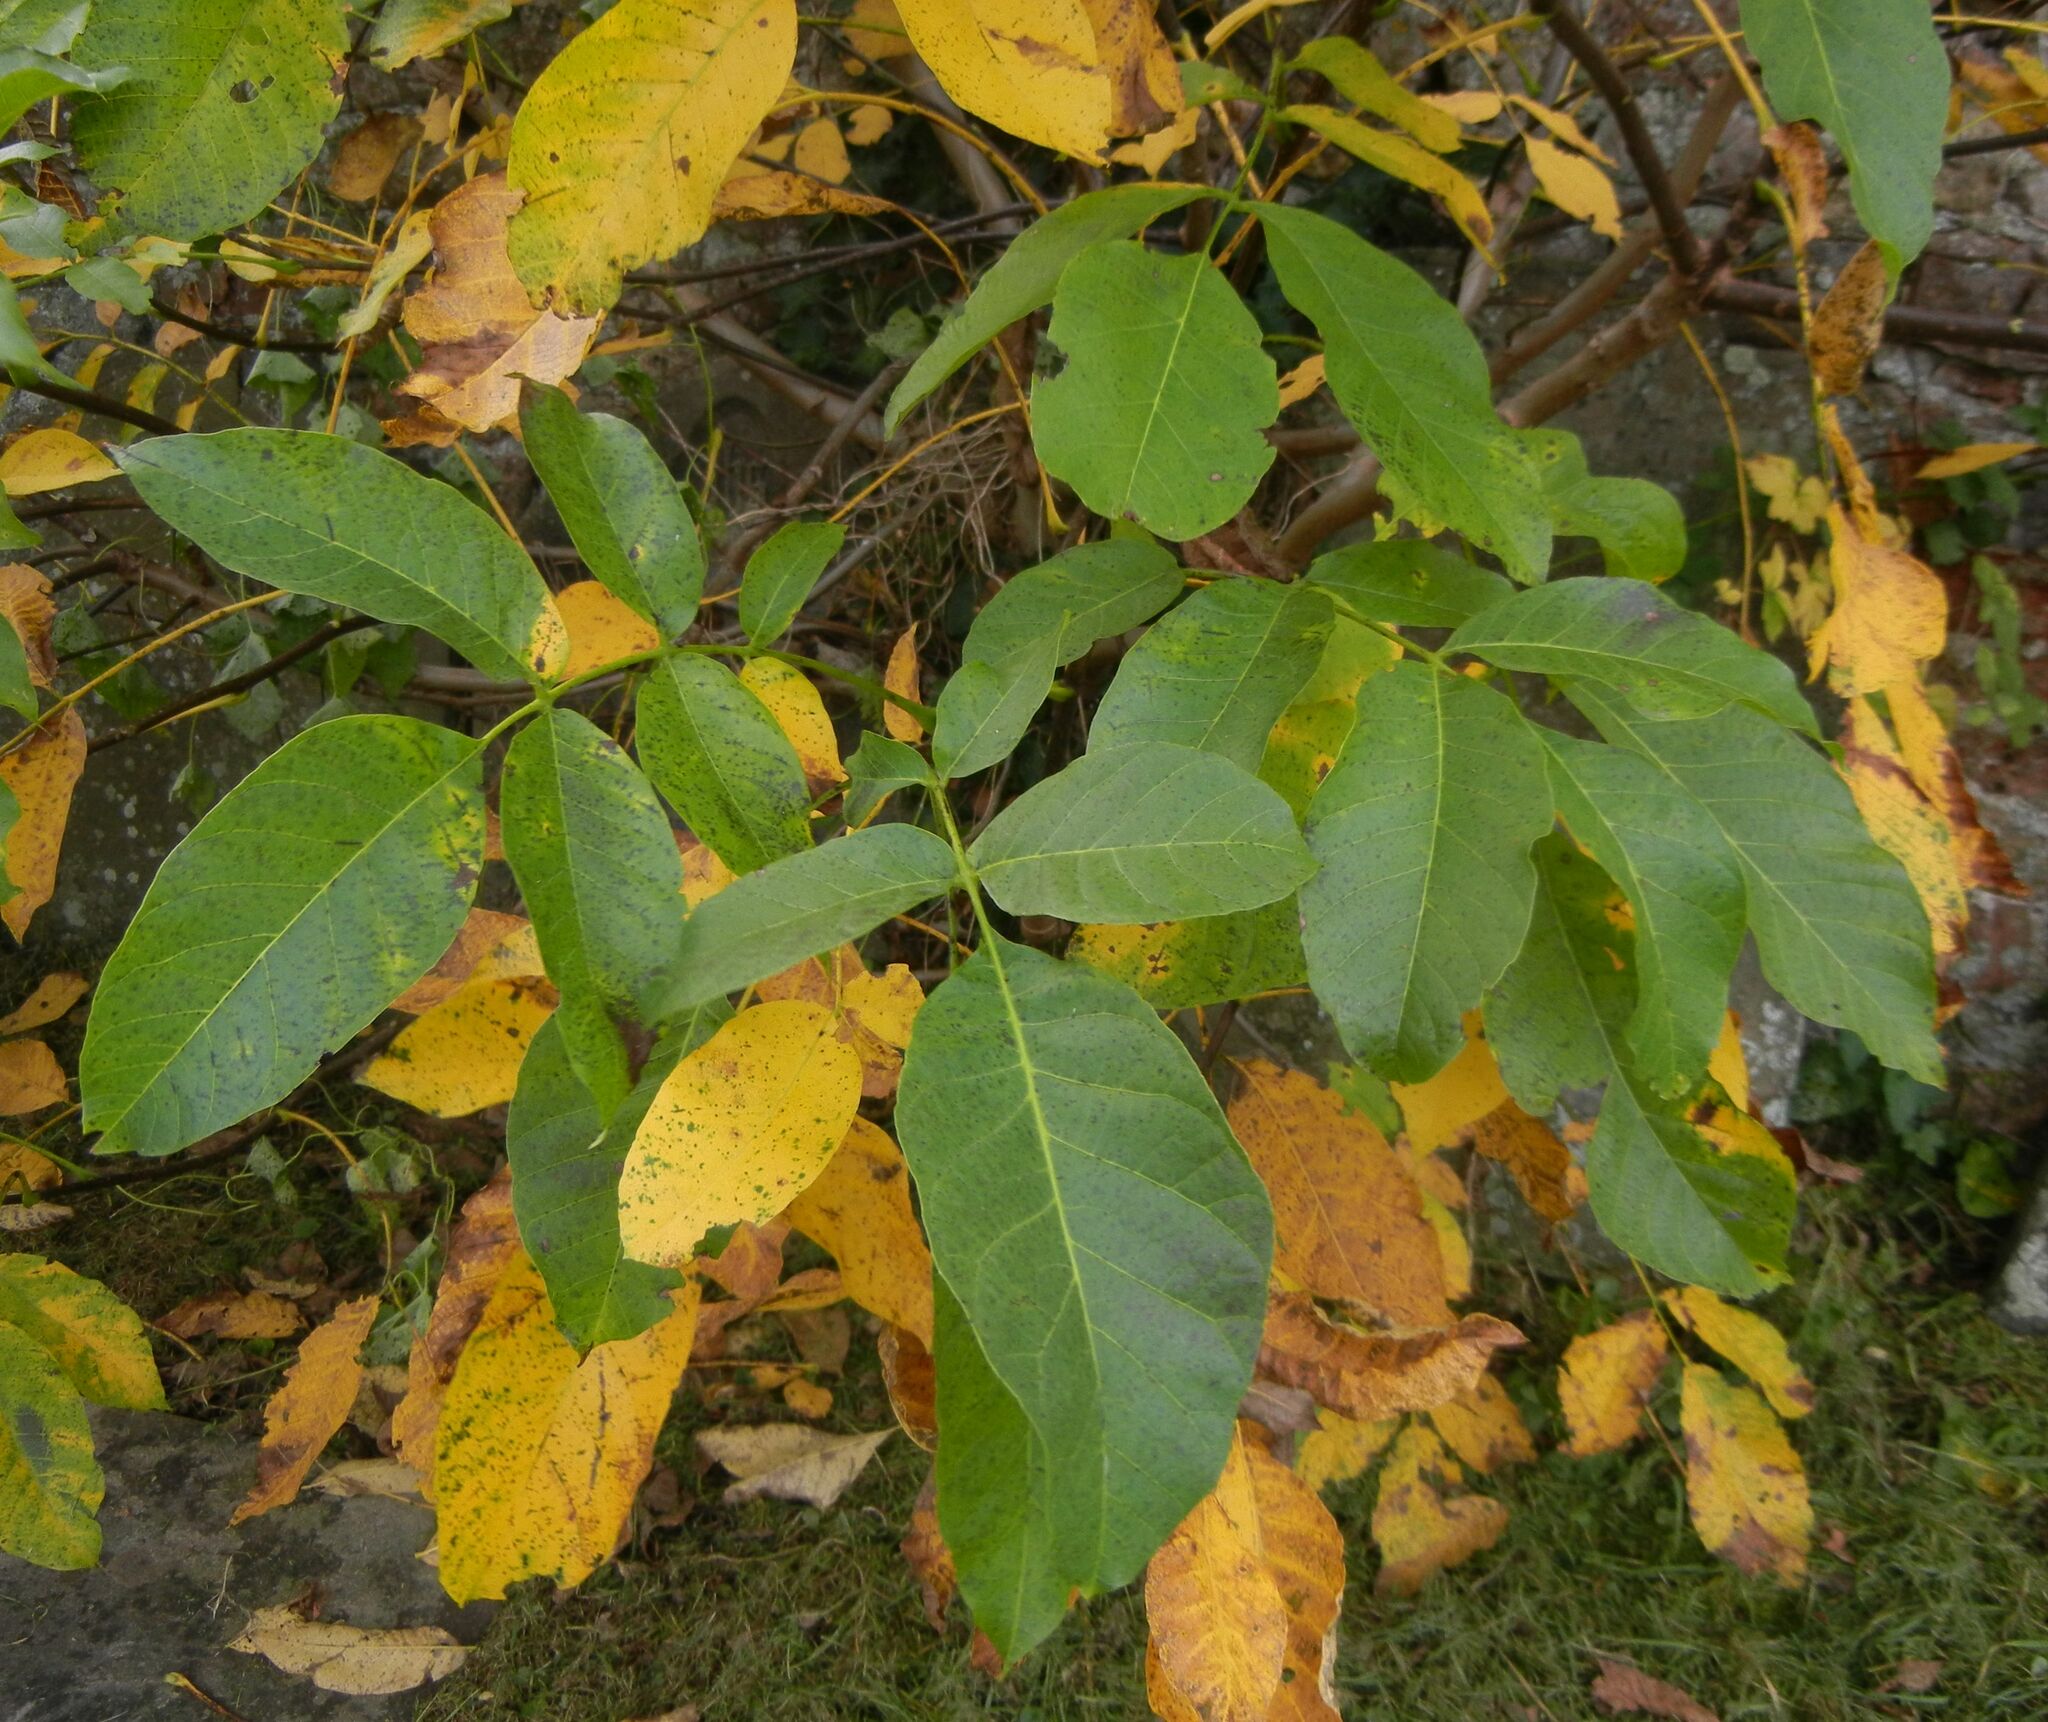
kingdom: Plantae
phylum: Tracheophyta
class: Magnoliopsida
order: Fagales
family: Juglandaceae
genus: Juglans
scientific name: Juglans regia
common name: Walnut
